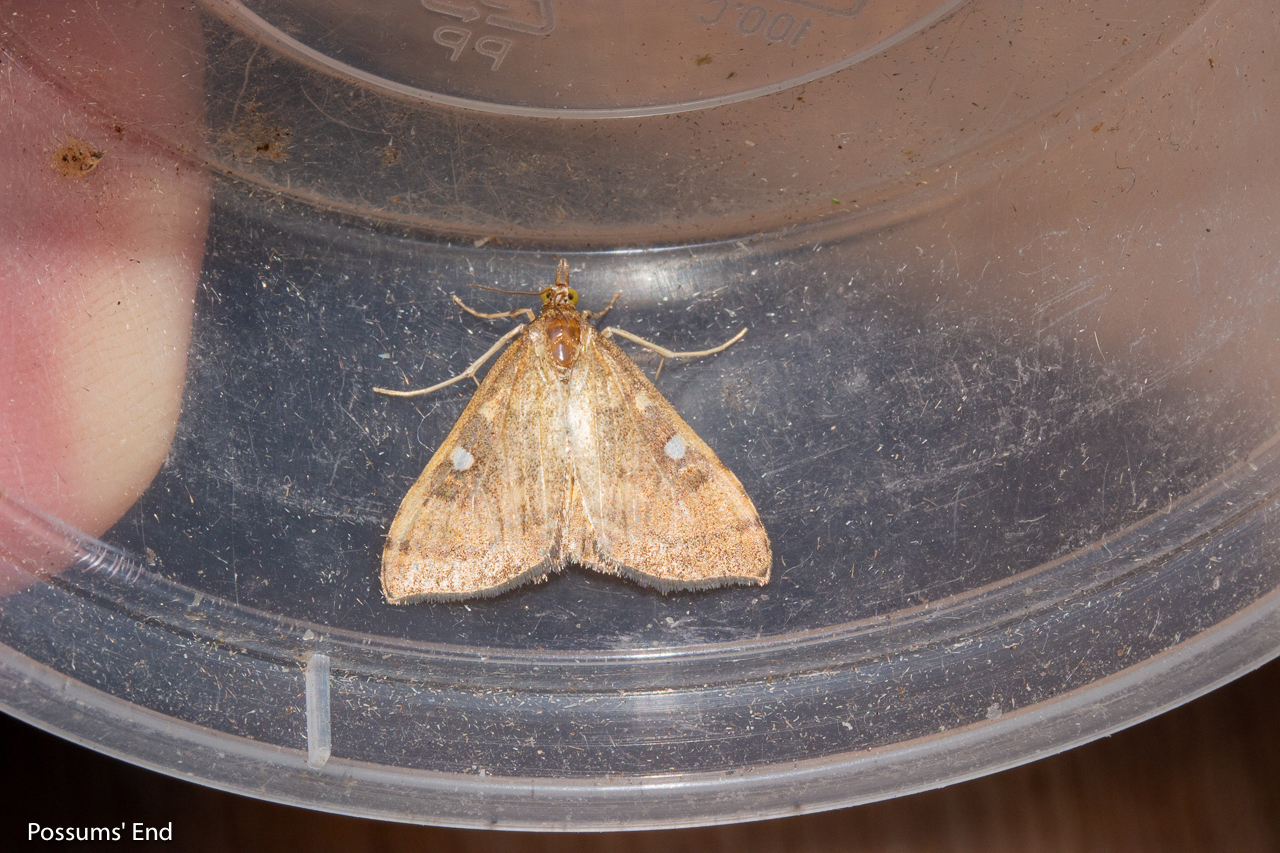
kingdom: Animalia
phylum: Arthropoda
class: Insecta
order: Lepidoptera
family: Crambidae
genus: Udea
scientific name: Udea Mnesictena marmarina
